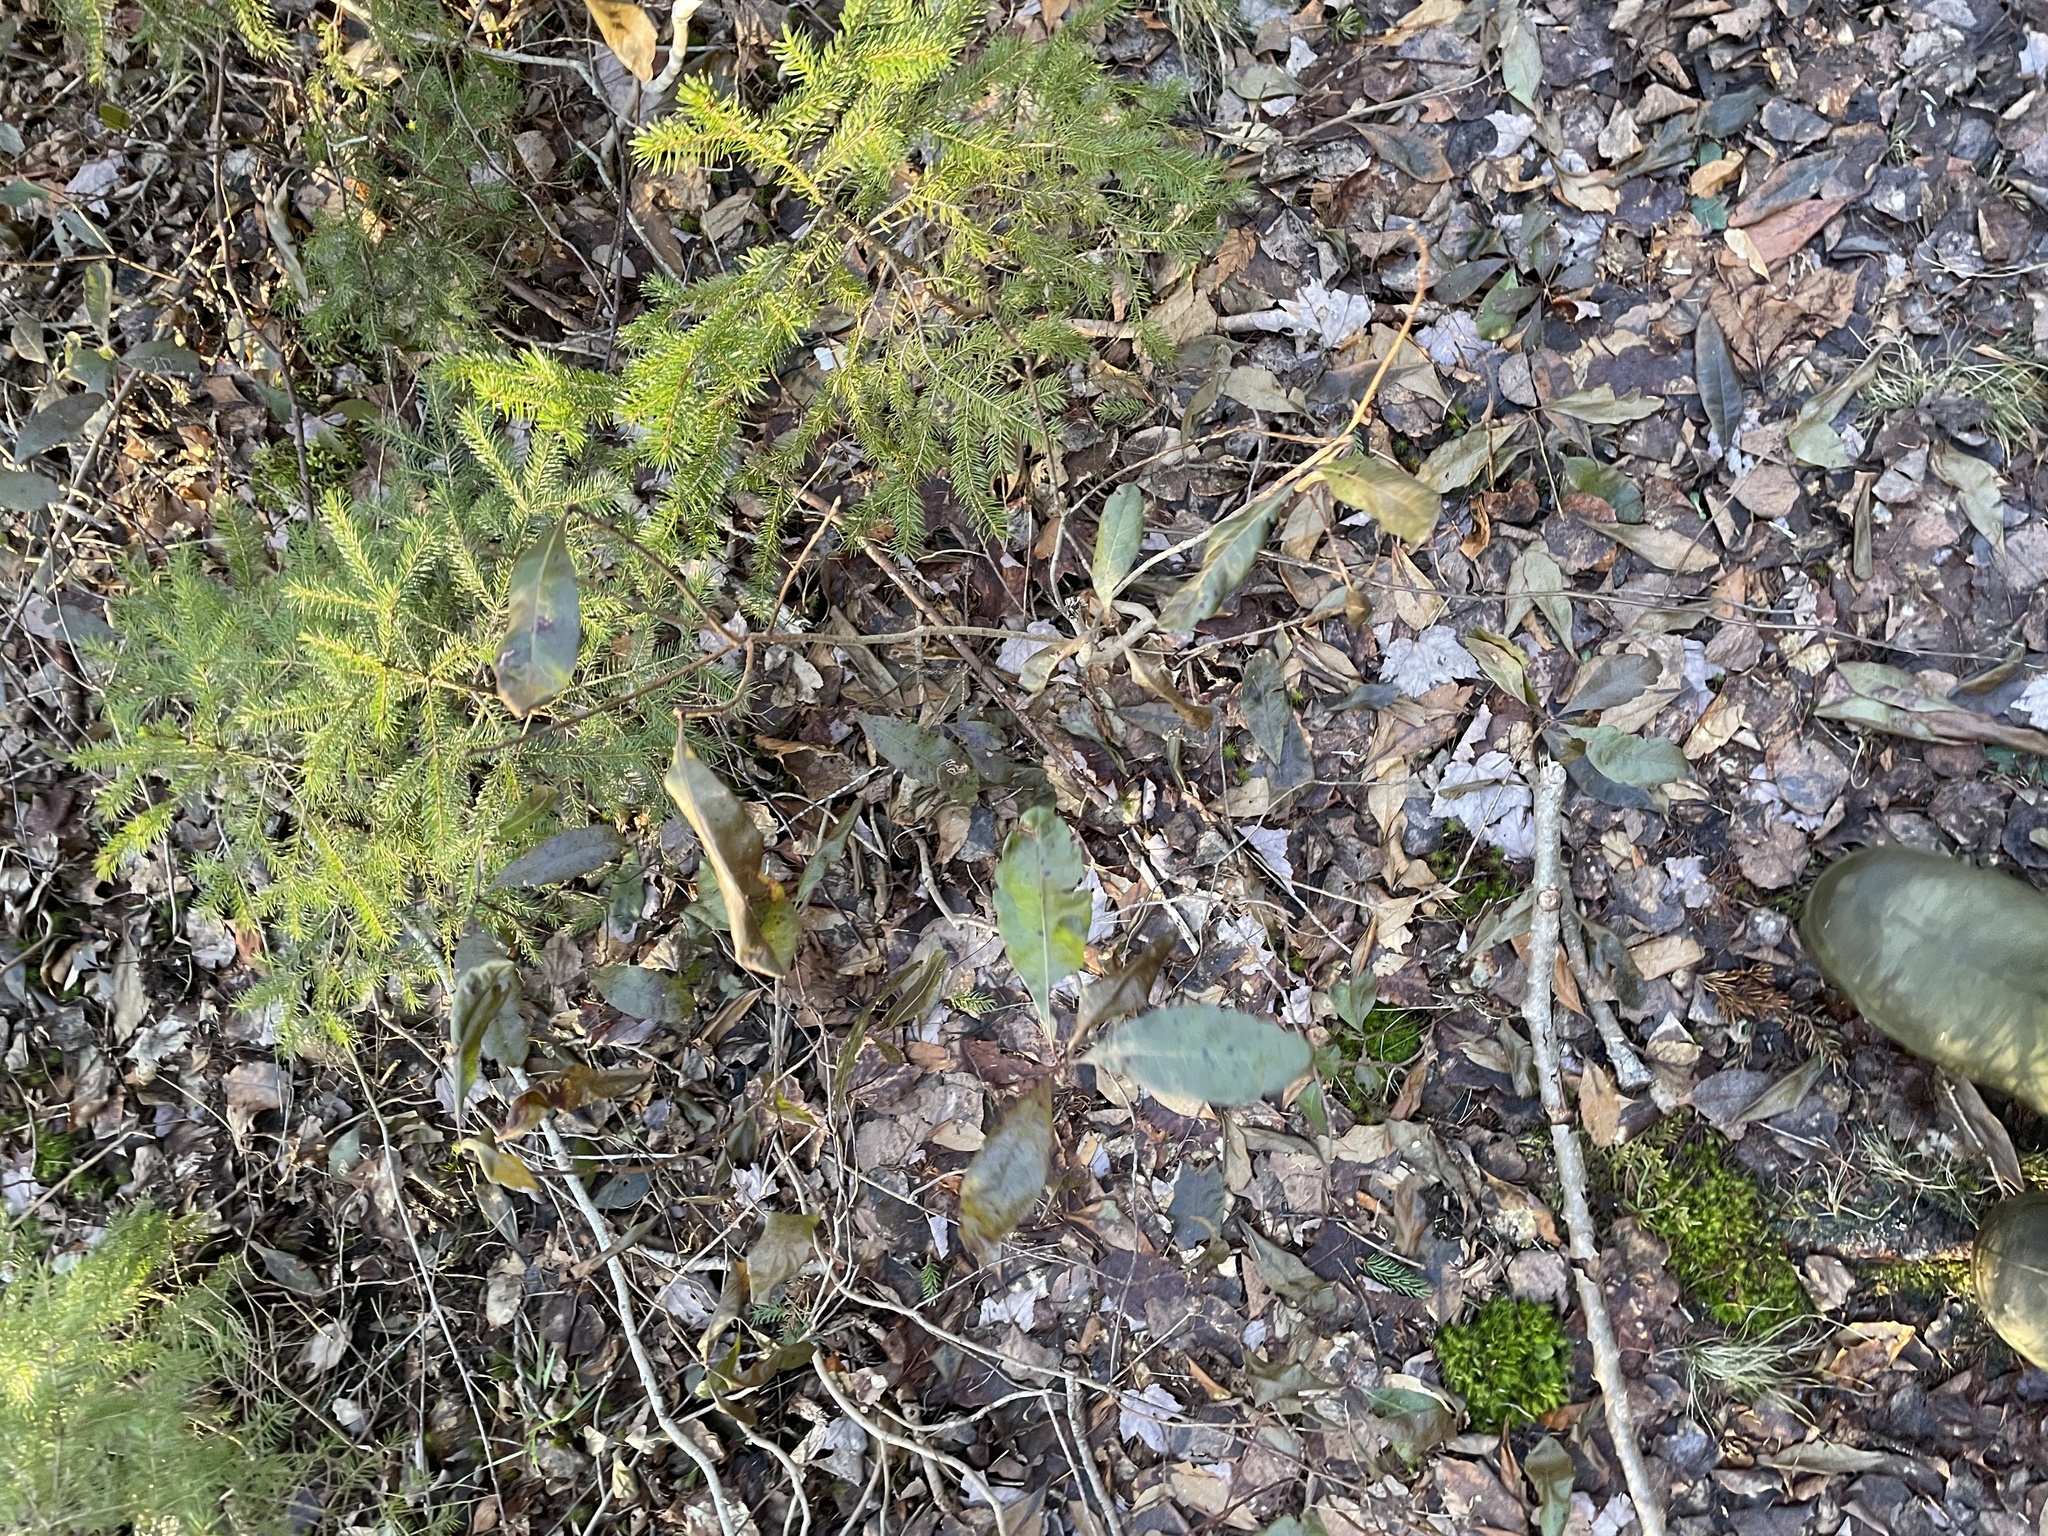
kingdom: Plantae
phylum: Tracheophyta
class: Magnoliopsida
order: Fagales
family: Myricaceae
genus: Morella
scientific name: Morella pensylvanica
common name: Northern bayberry
